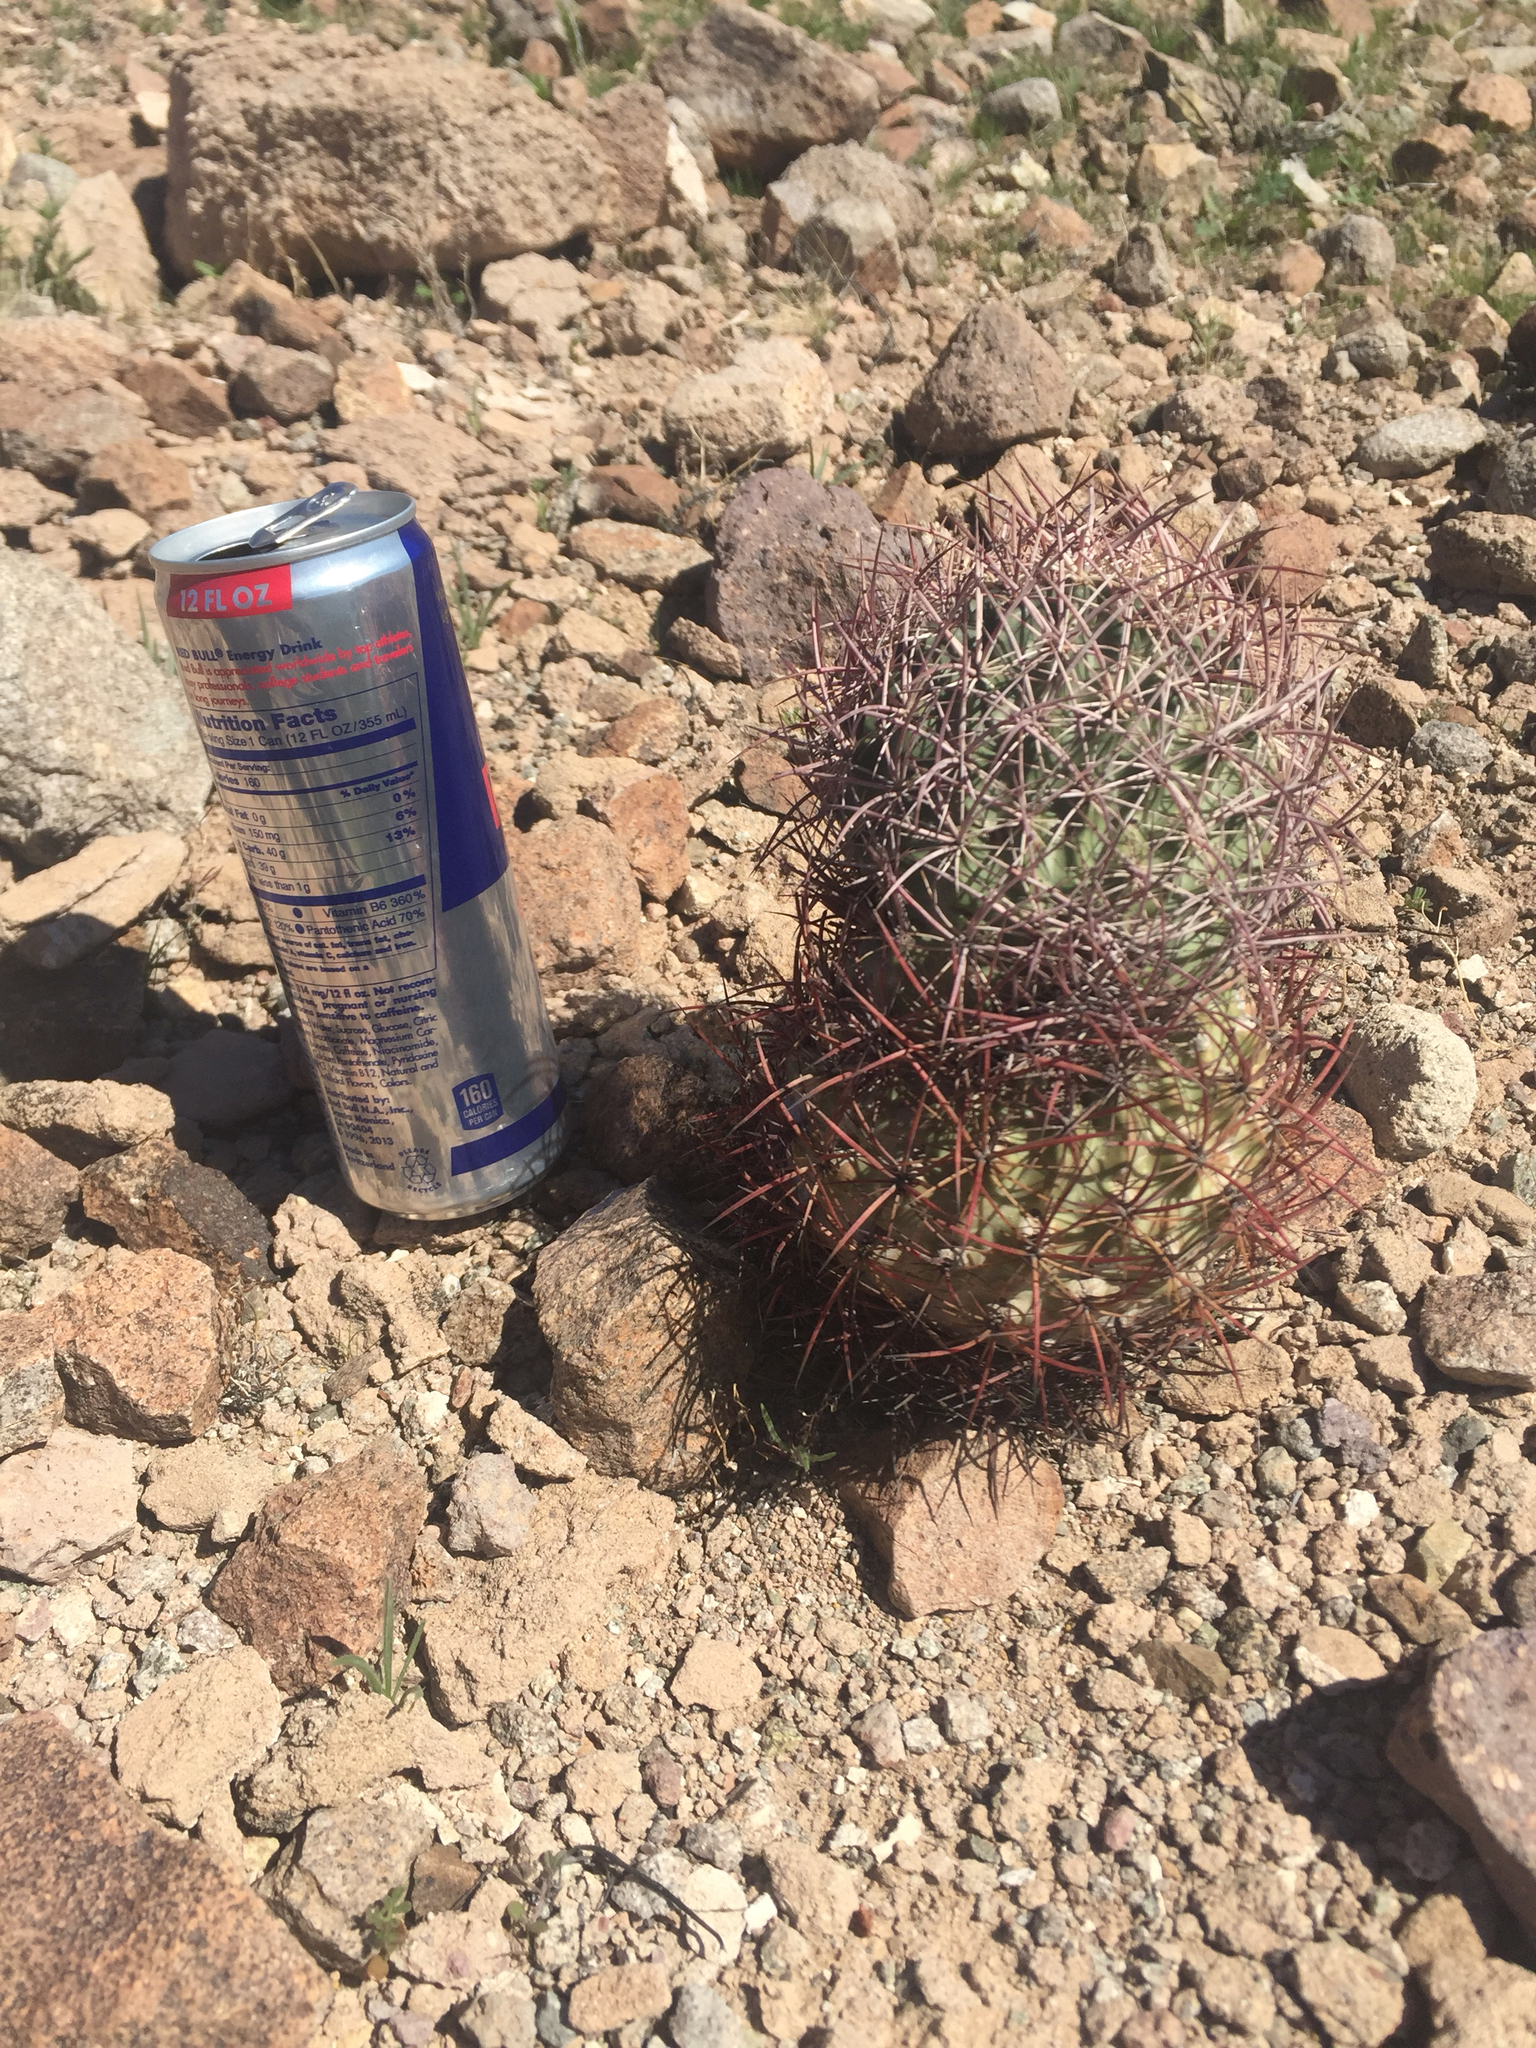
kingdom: Plantae
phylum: Tracheophyta
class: Magnoliopsida
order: Caryophyllales
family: Cactaceae
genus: Sclerocactus
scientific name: Sclerocactus johnsonii
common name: Eight-spine fishhook cactus
